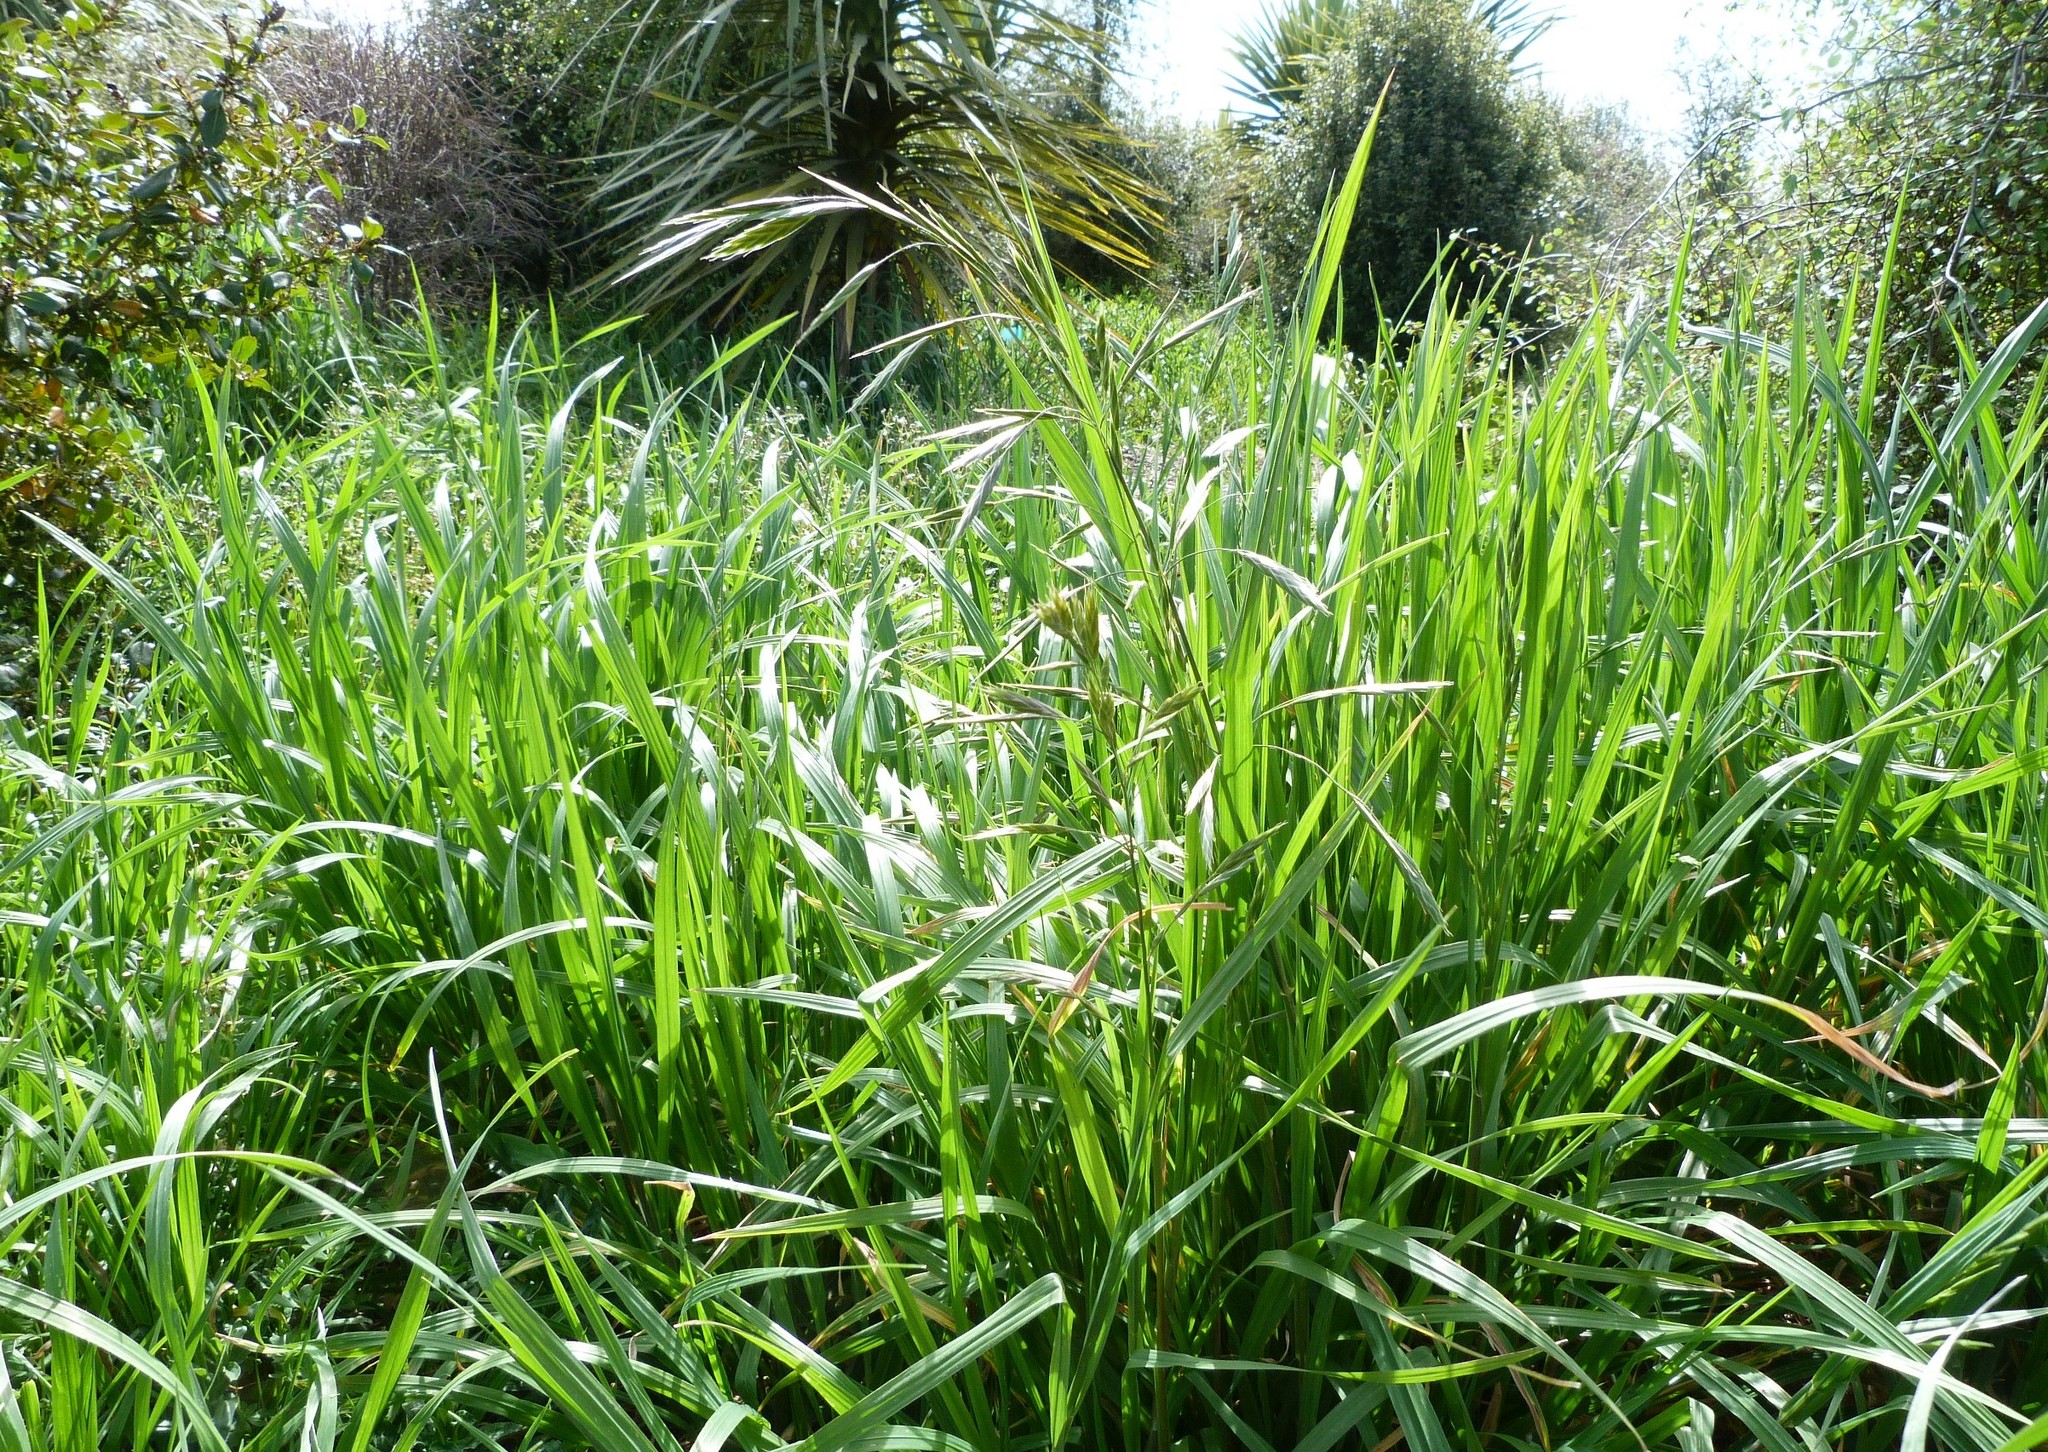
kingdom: Plantae
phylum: Tracheophyta
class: Liliopsida
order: Poales
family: Poaceae
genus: Bromus
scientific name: Bromus catharticus
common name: Rescuegrass
